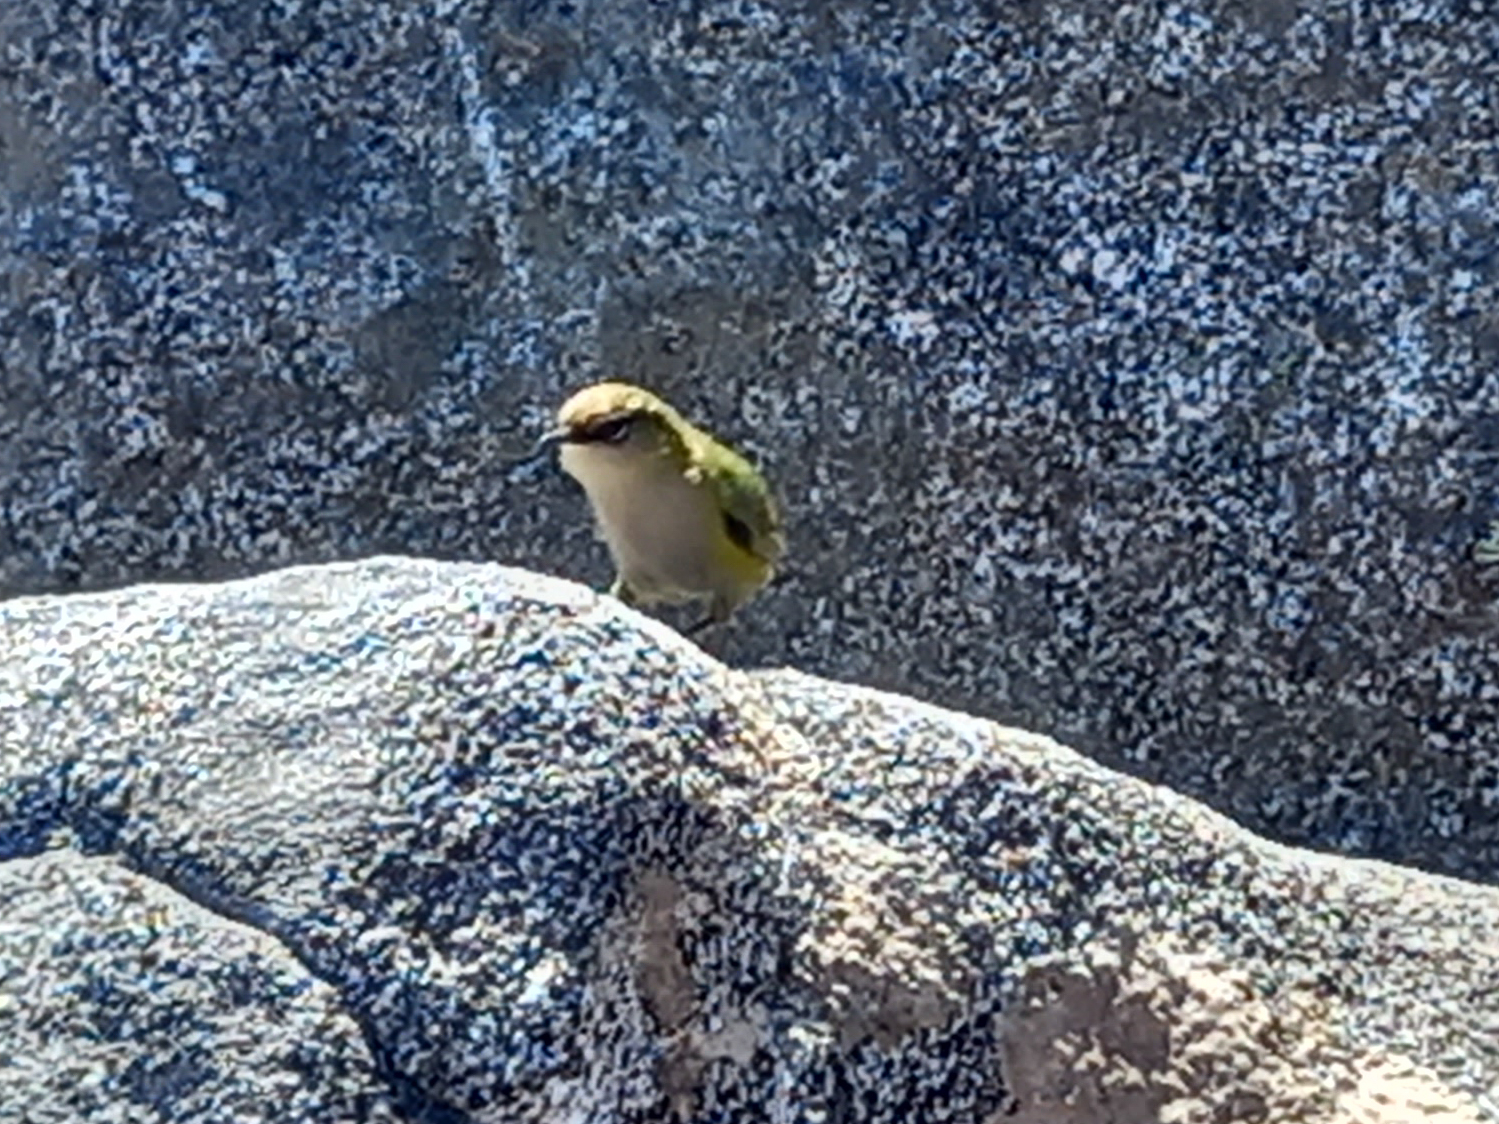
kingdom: Animalia
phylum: Chordata
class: Aves
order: Passeriformes
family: Acanthisittidae
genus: Xenicus
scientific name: Xenicus gilviventris
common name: New zealand rockwren
